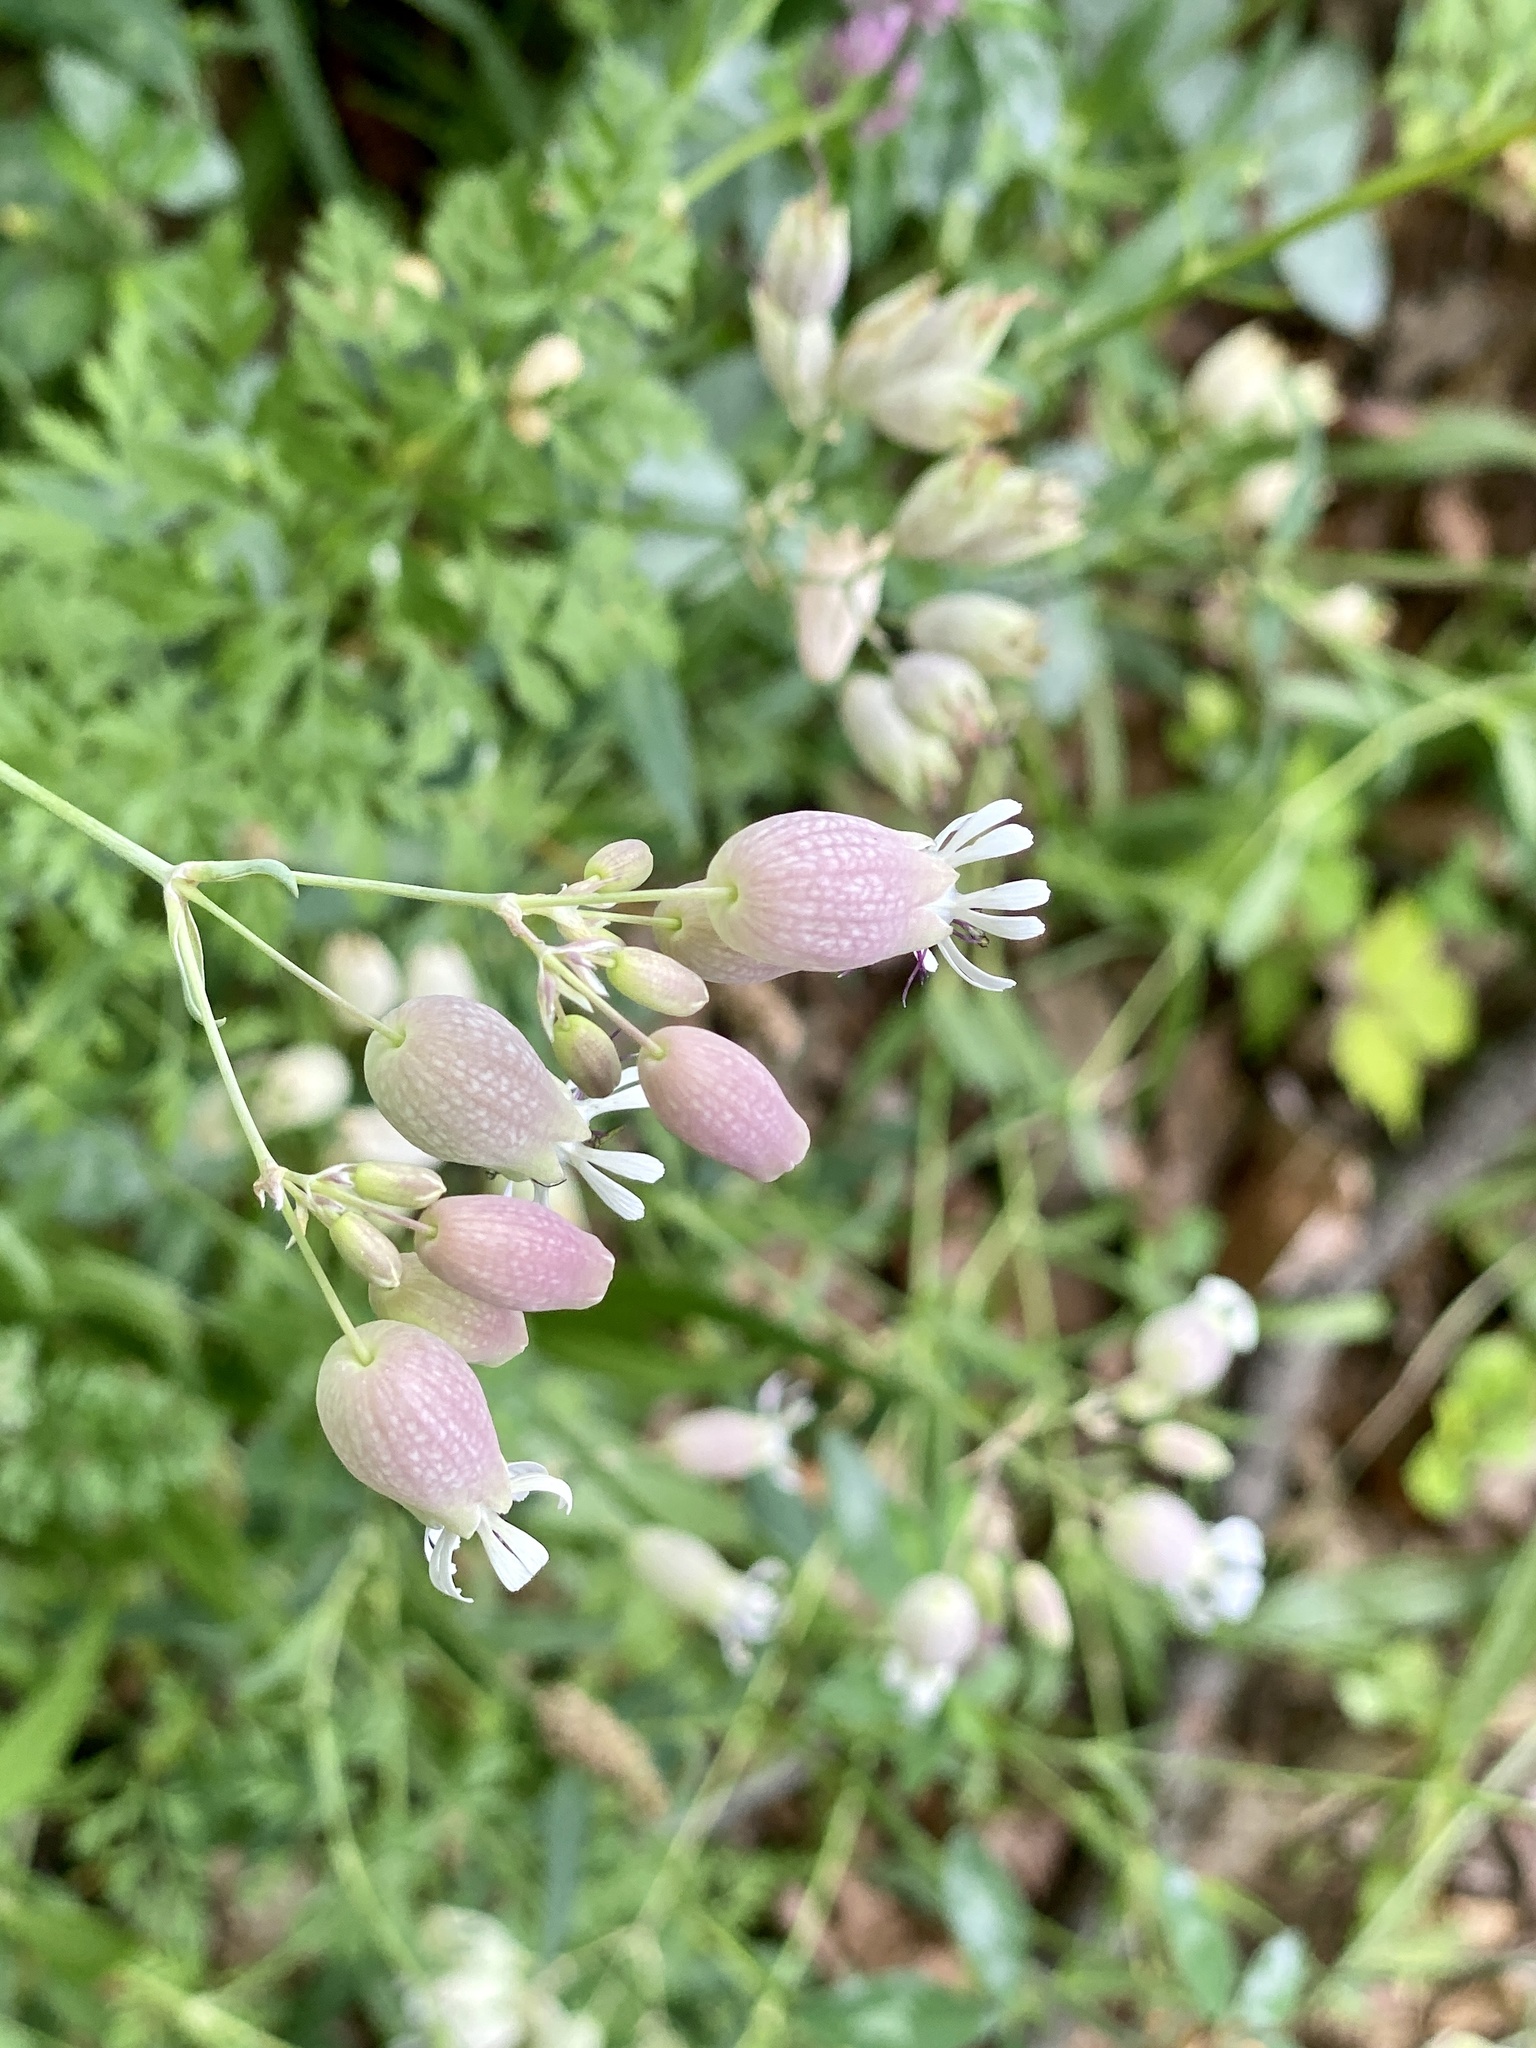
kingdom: Plantae
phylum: Tracheophyta
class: Magnoliopsida
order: Caryophyllales
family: Caryophyllaceae
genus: Silene
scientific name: Silene vulgaris
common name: Bladder campion
